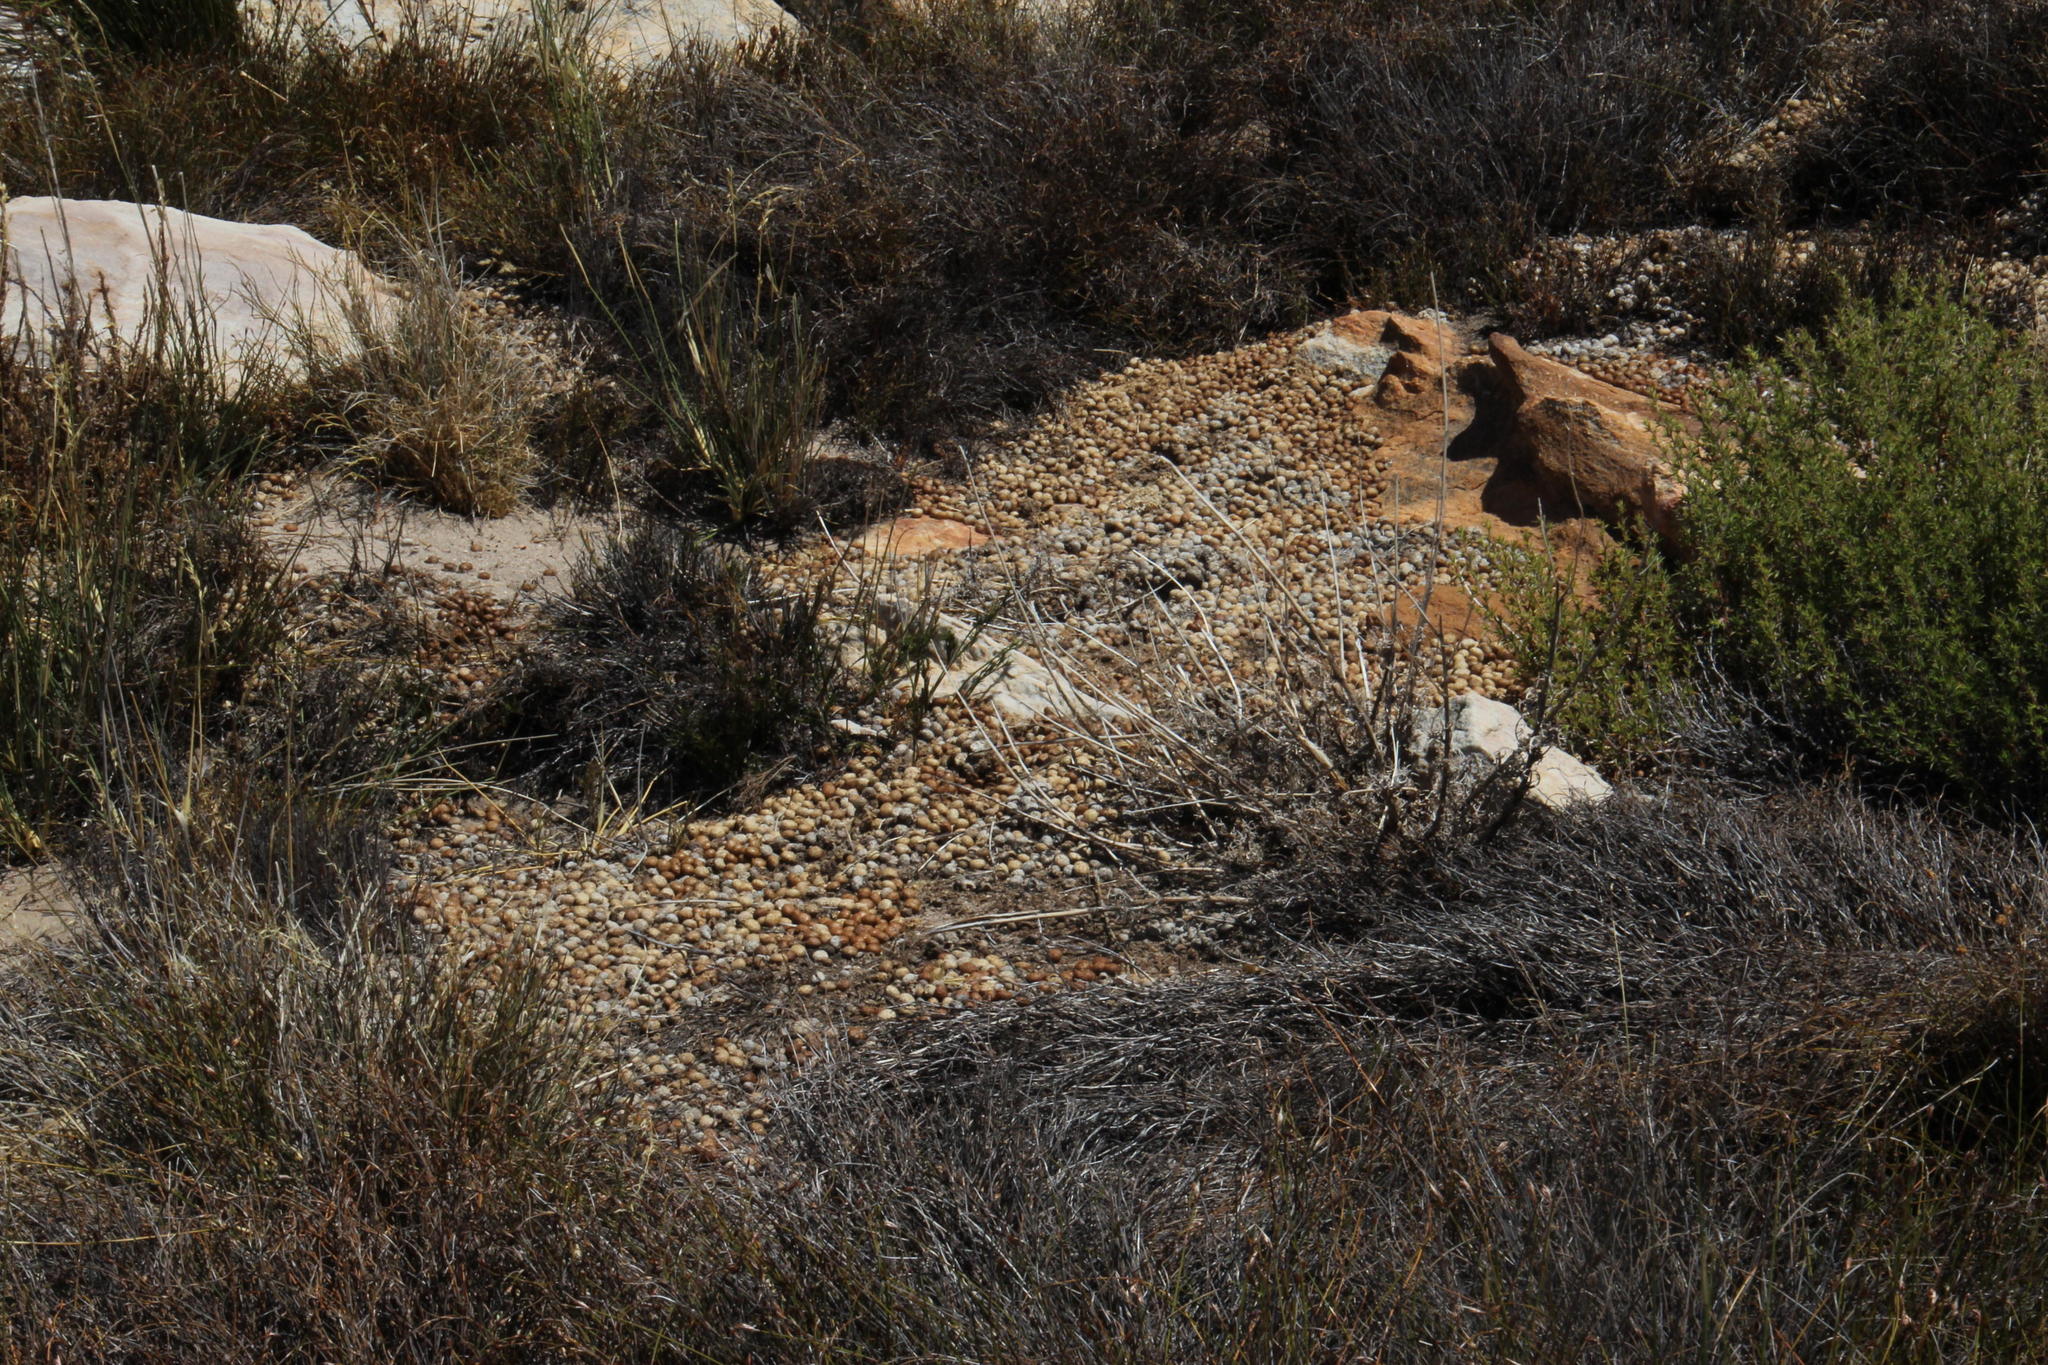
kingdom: Animalia
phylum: Chordata
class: Mammalia
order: Lagomorpha
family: Leporidae
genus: Pronolagus
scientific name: Pronolagus saundersiae
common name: Hewitt's red rock hare
